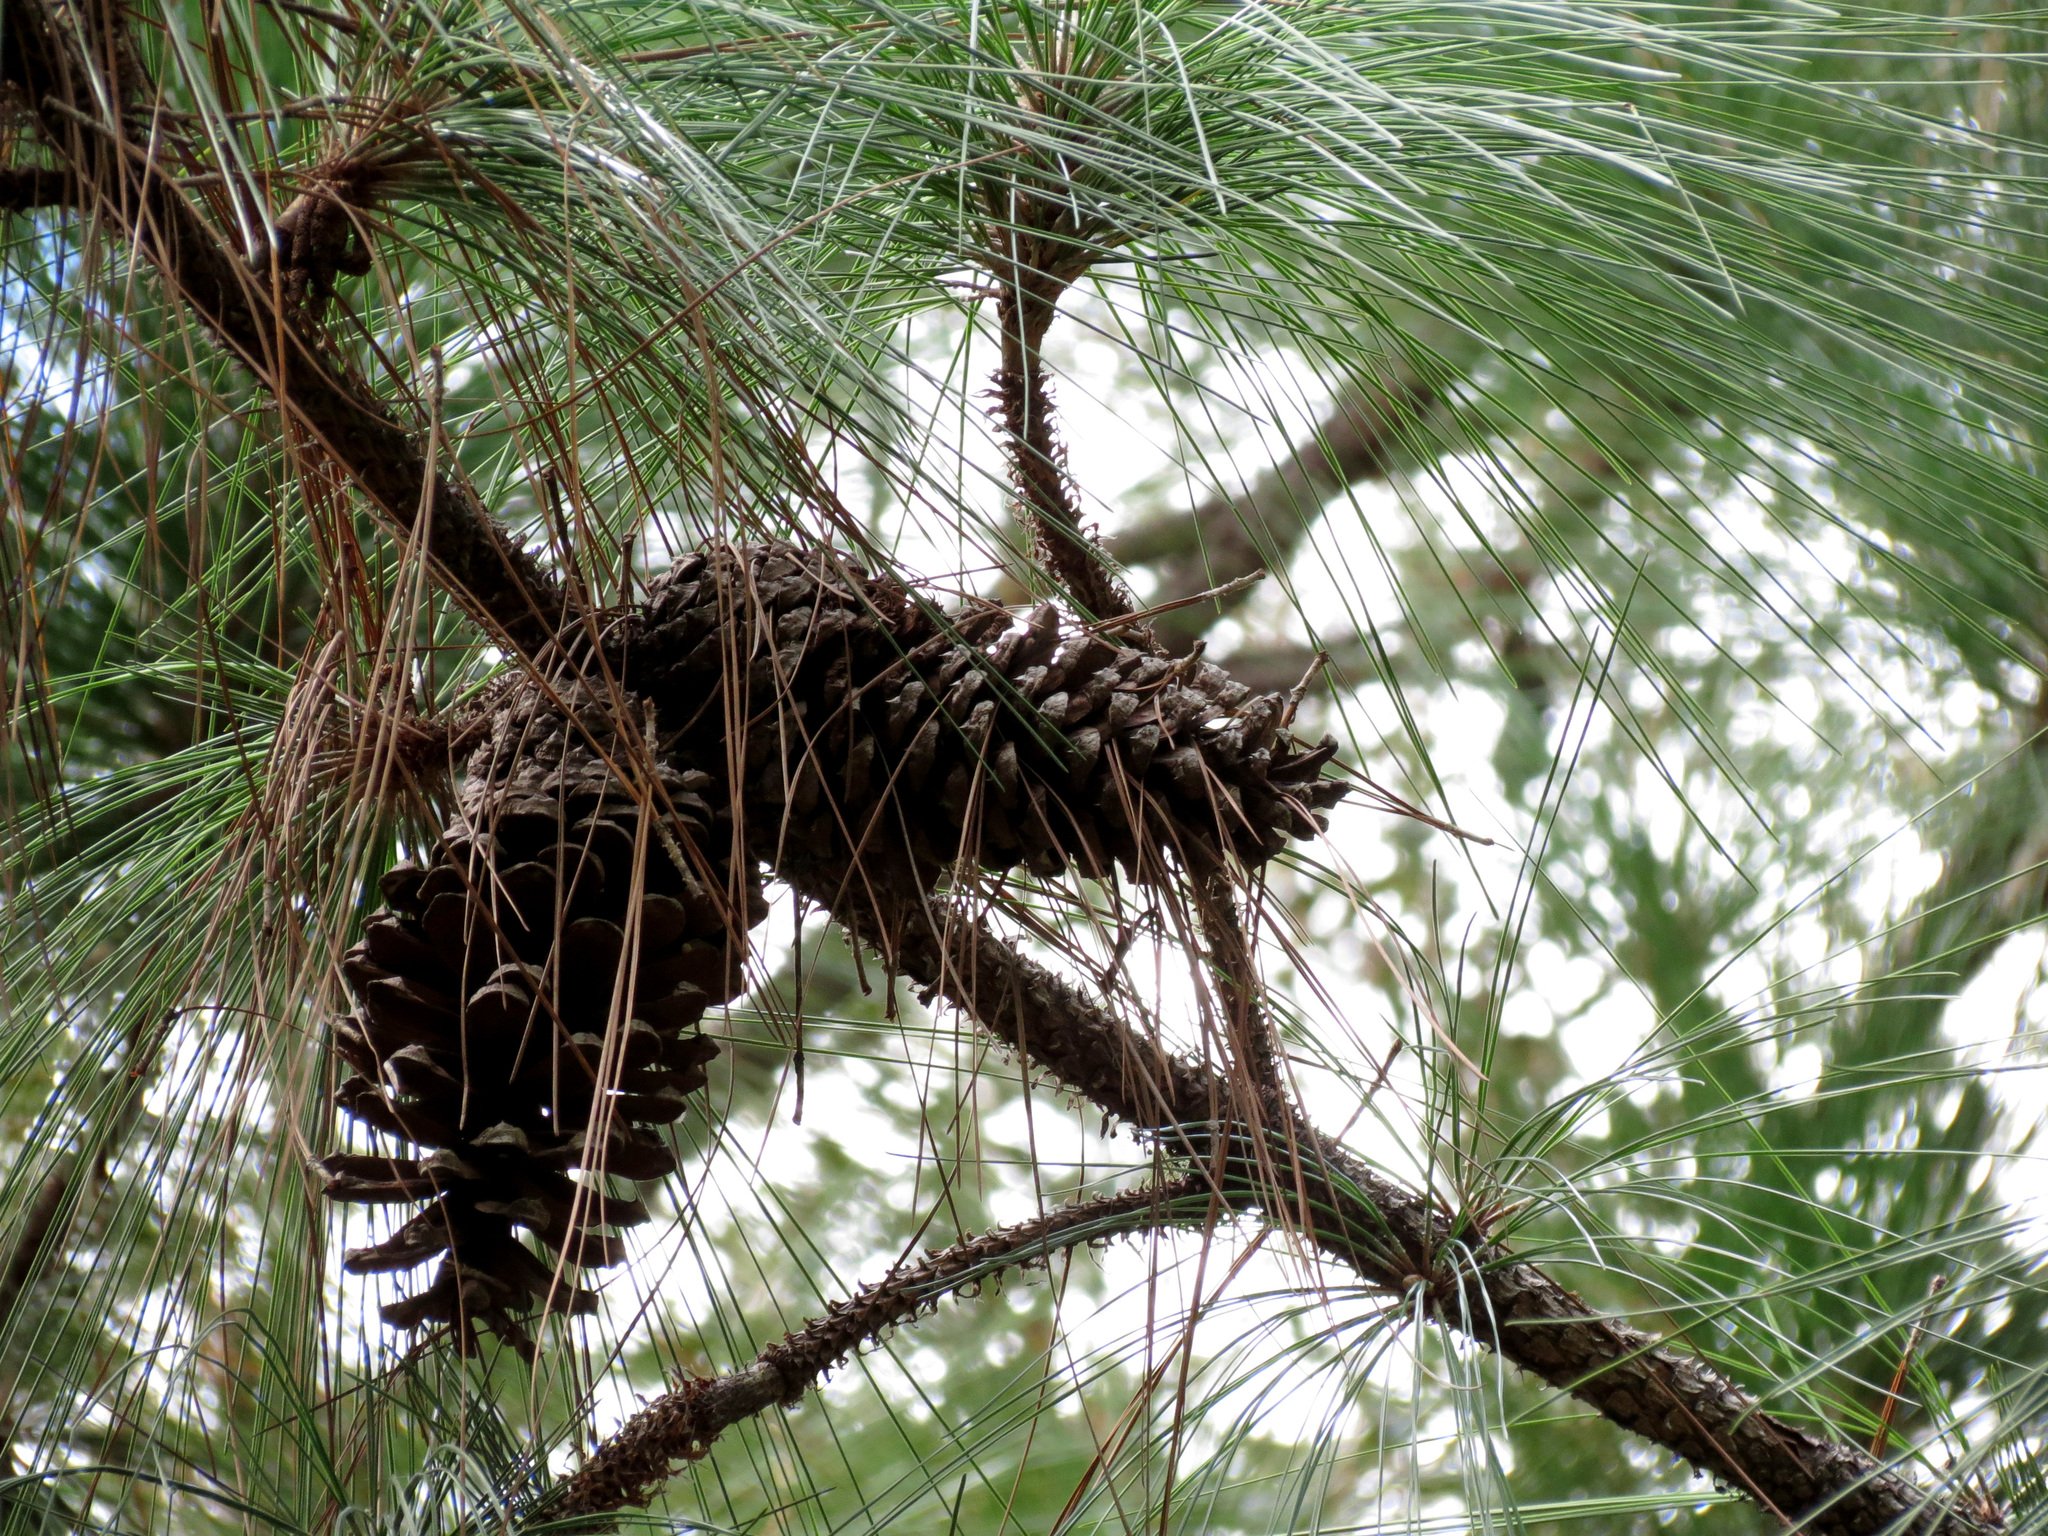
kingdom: Plantae
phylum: Tracheophyta
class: Pinopsida
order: Pinales
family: Pinaceae
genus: Pinus
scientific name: Pinus palustris
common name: Longleaf pine
